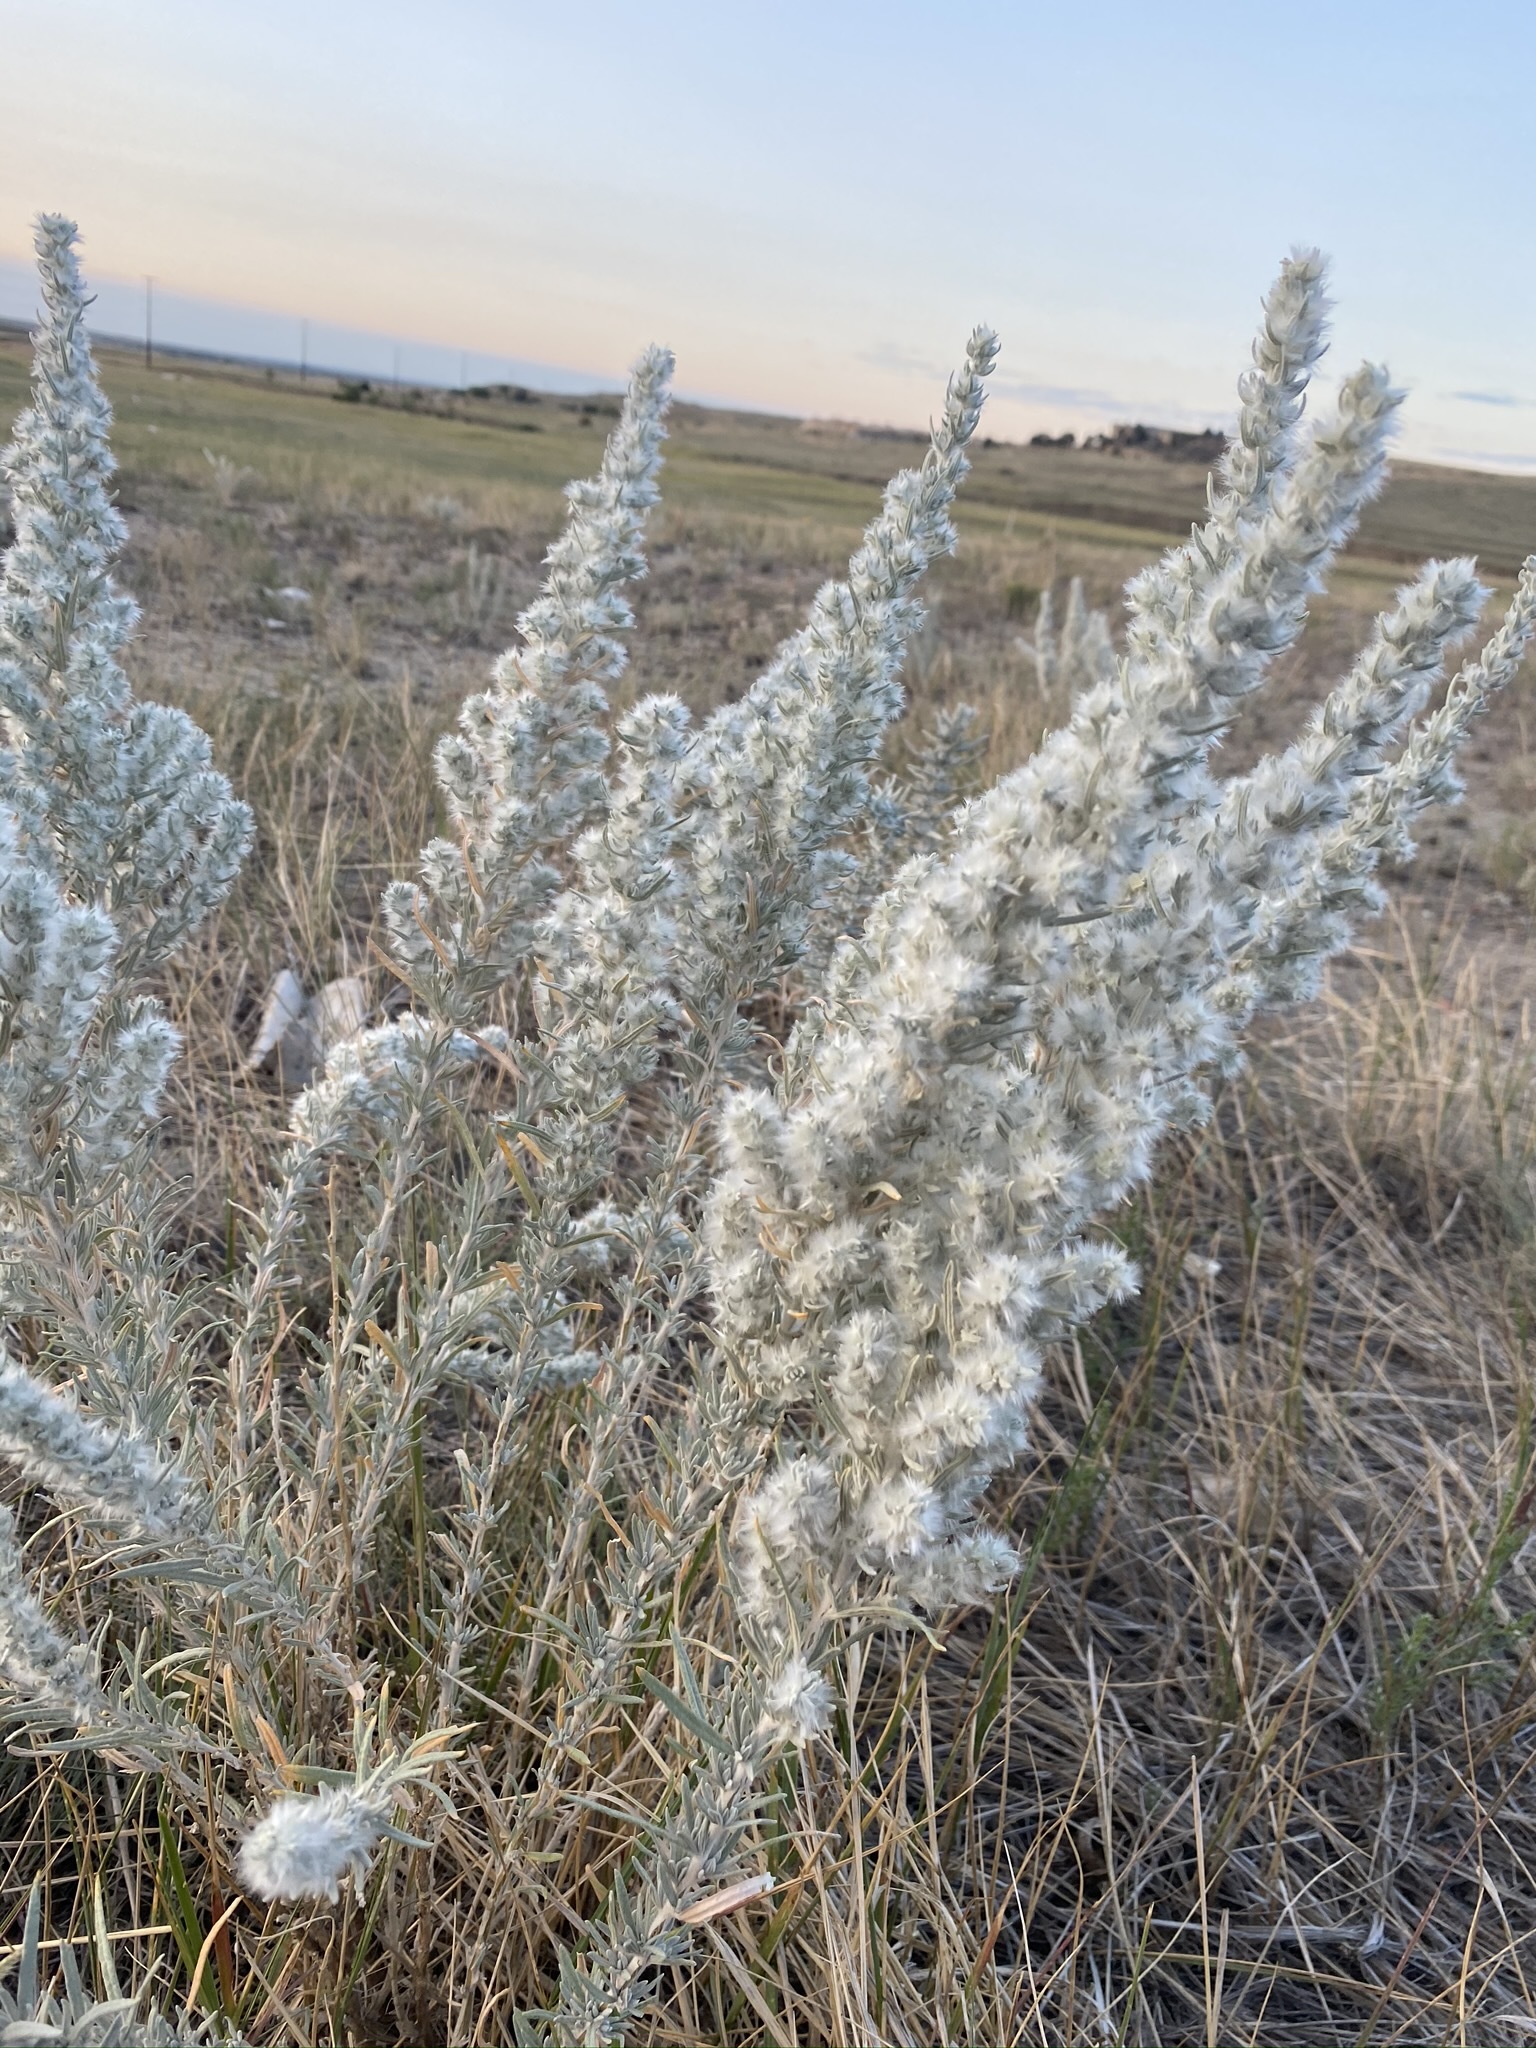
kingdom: Plantae
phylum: Tracheophyta
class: Magnoliopsida
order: Caryophyllales
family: Amaranthaceae
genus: Krascheninnikovia
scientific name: Krascheninnikovia lanata
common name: Winterfat
